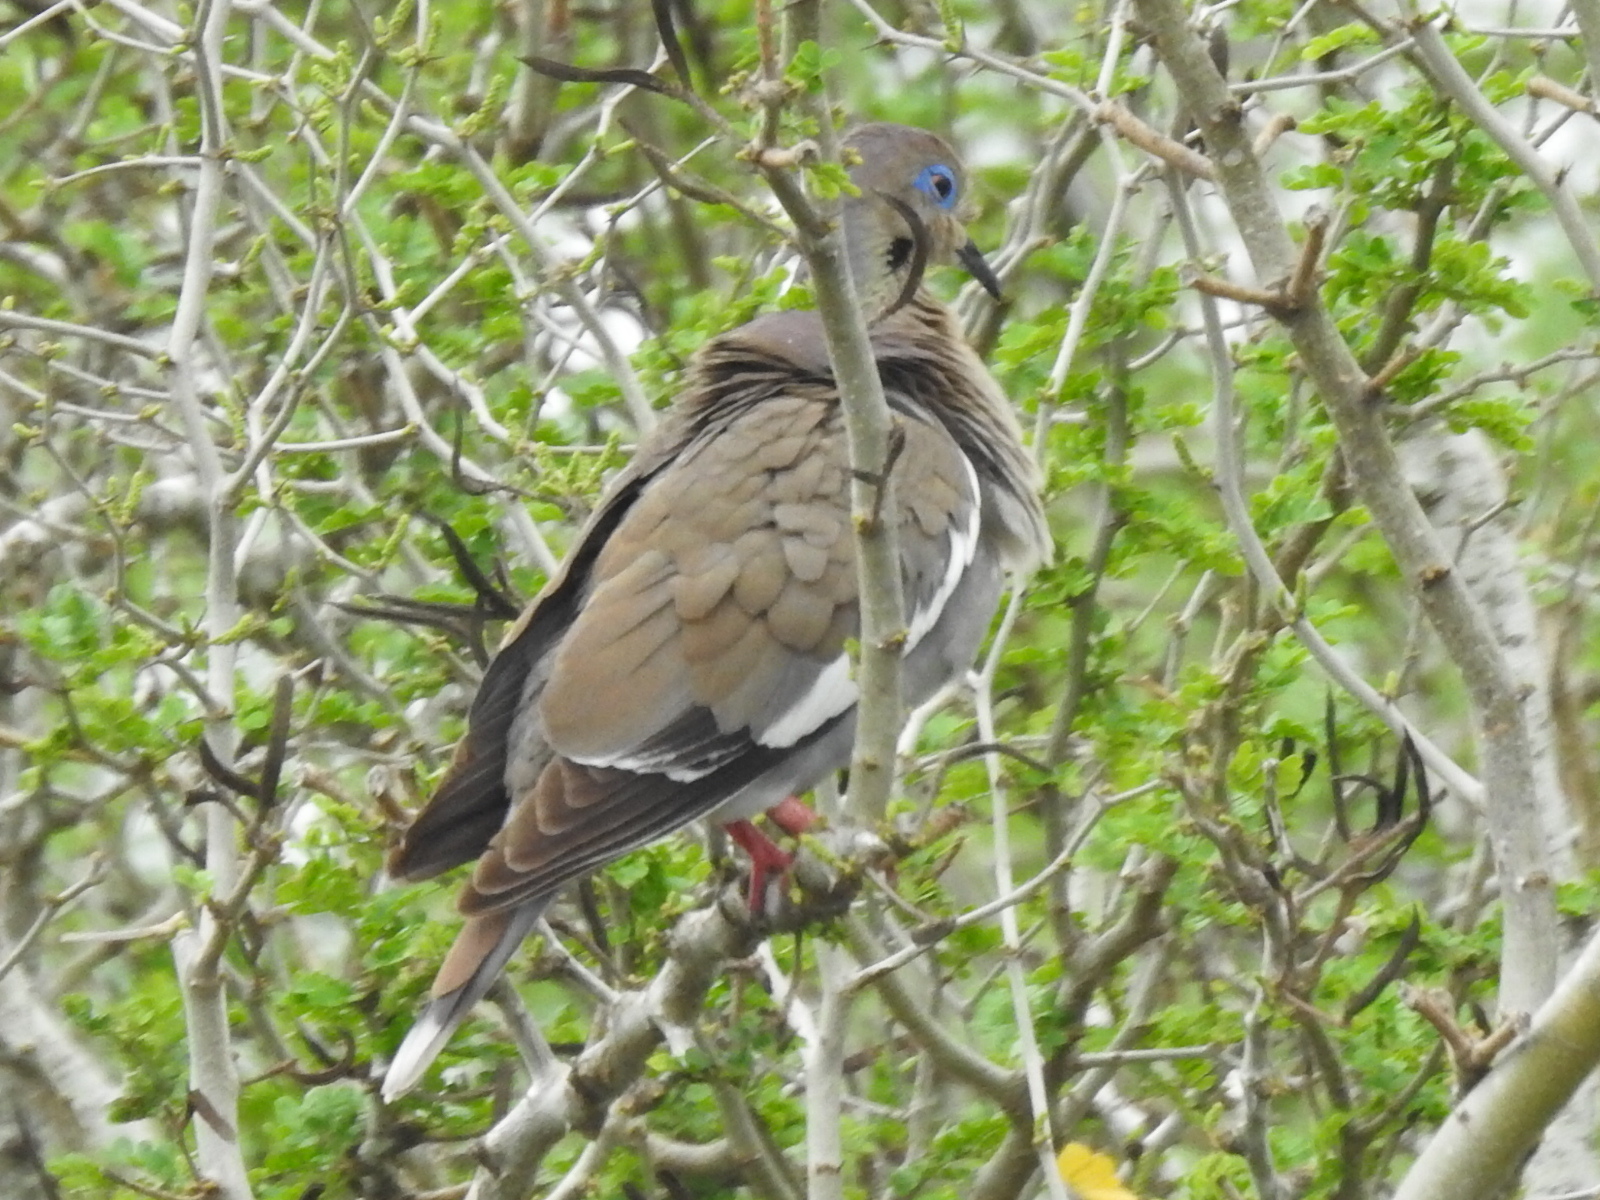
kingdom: Animalia
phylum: Chordata
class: Aves
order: Columbiformes
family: Columbidae
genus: Zenaida
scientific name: Zenaida asiatica
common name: White-winged dove
